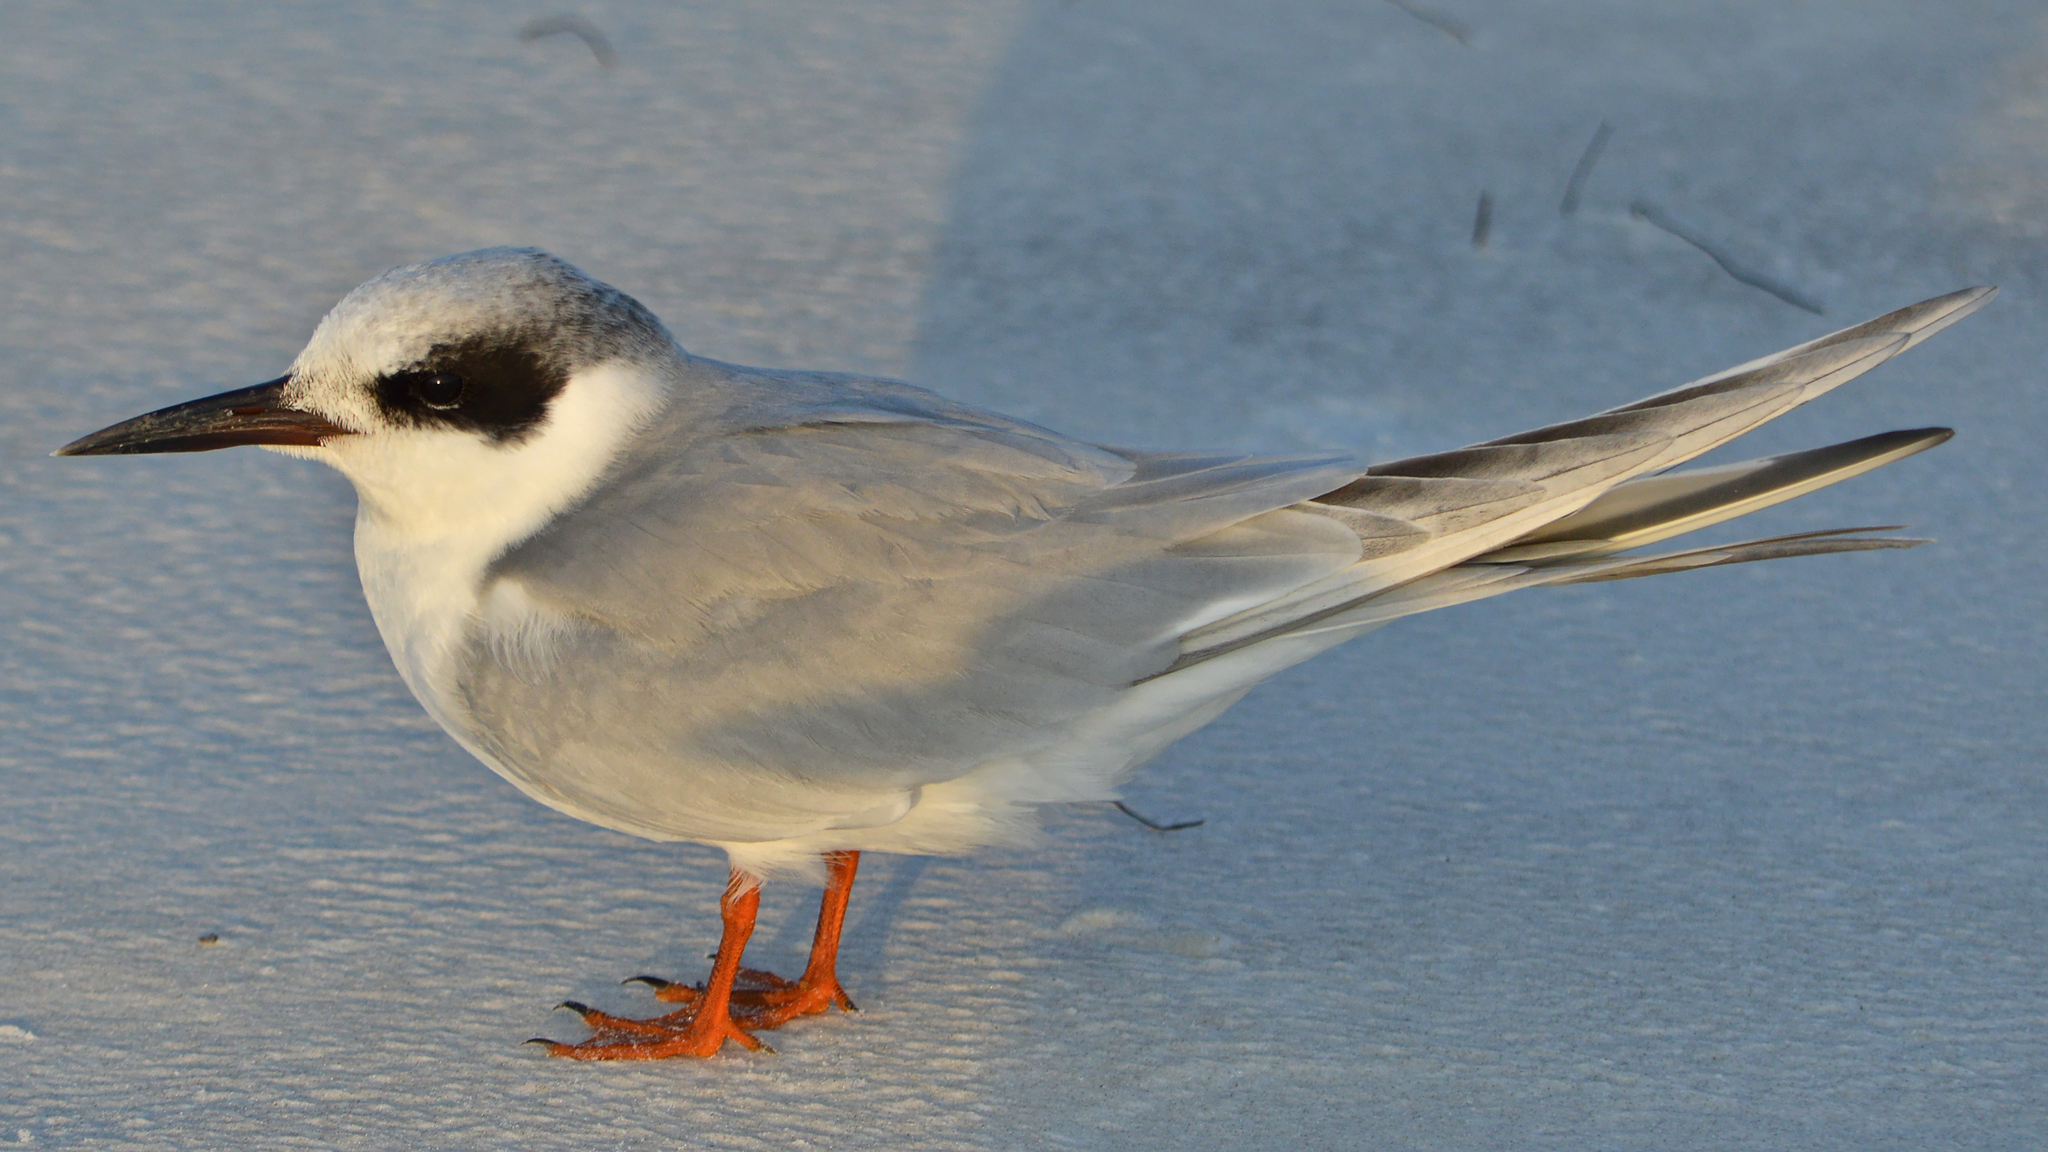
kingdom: Animalia
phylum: Chordata
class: Aves
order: Charadriiformes
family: Laridae
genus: Sterna
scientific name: Sterna forsteri
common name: Forster's tern
